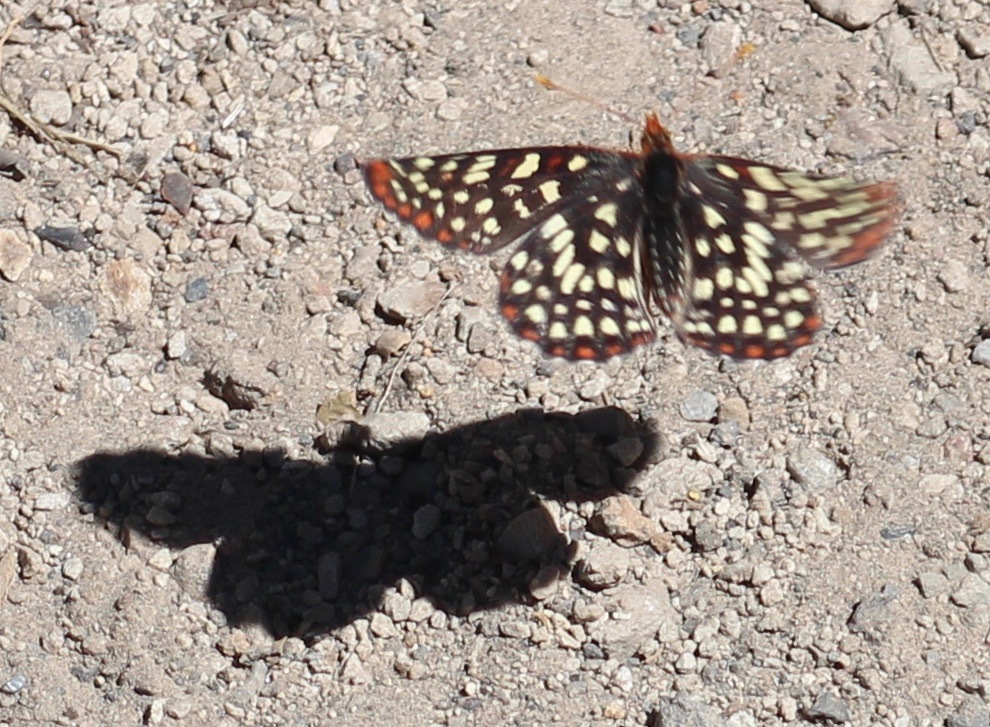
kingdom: Animalia
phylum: Arthropoda
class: Insecta
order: Lepidoptera
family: Nymphalidae
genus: Occidryas
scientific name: Occidryas chalcedona
